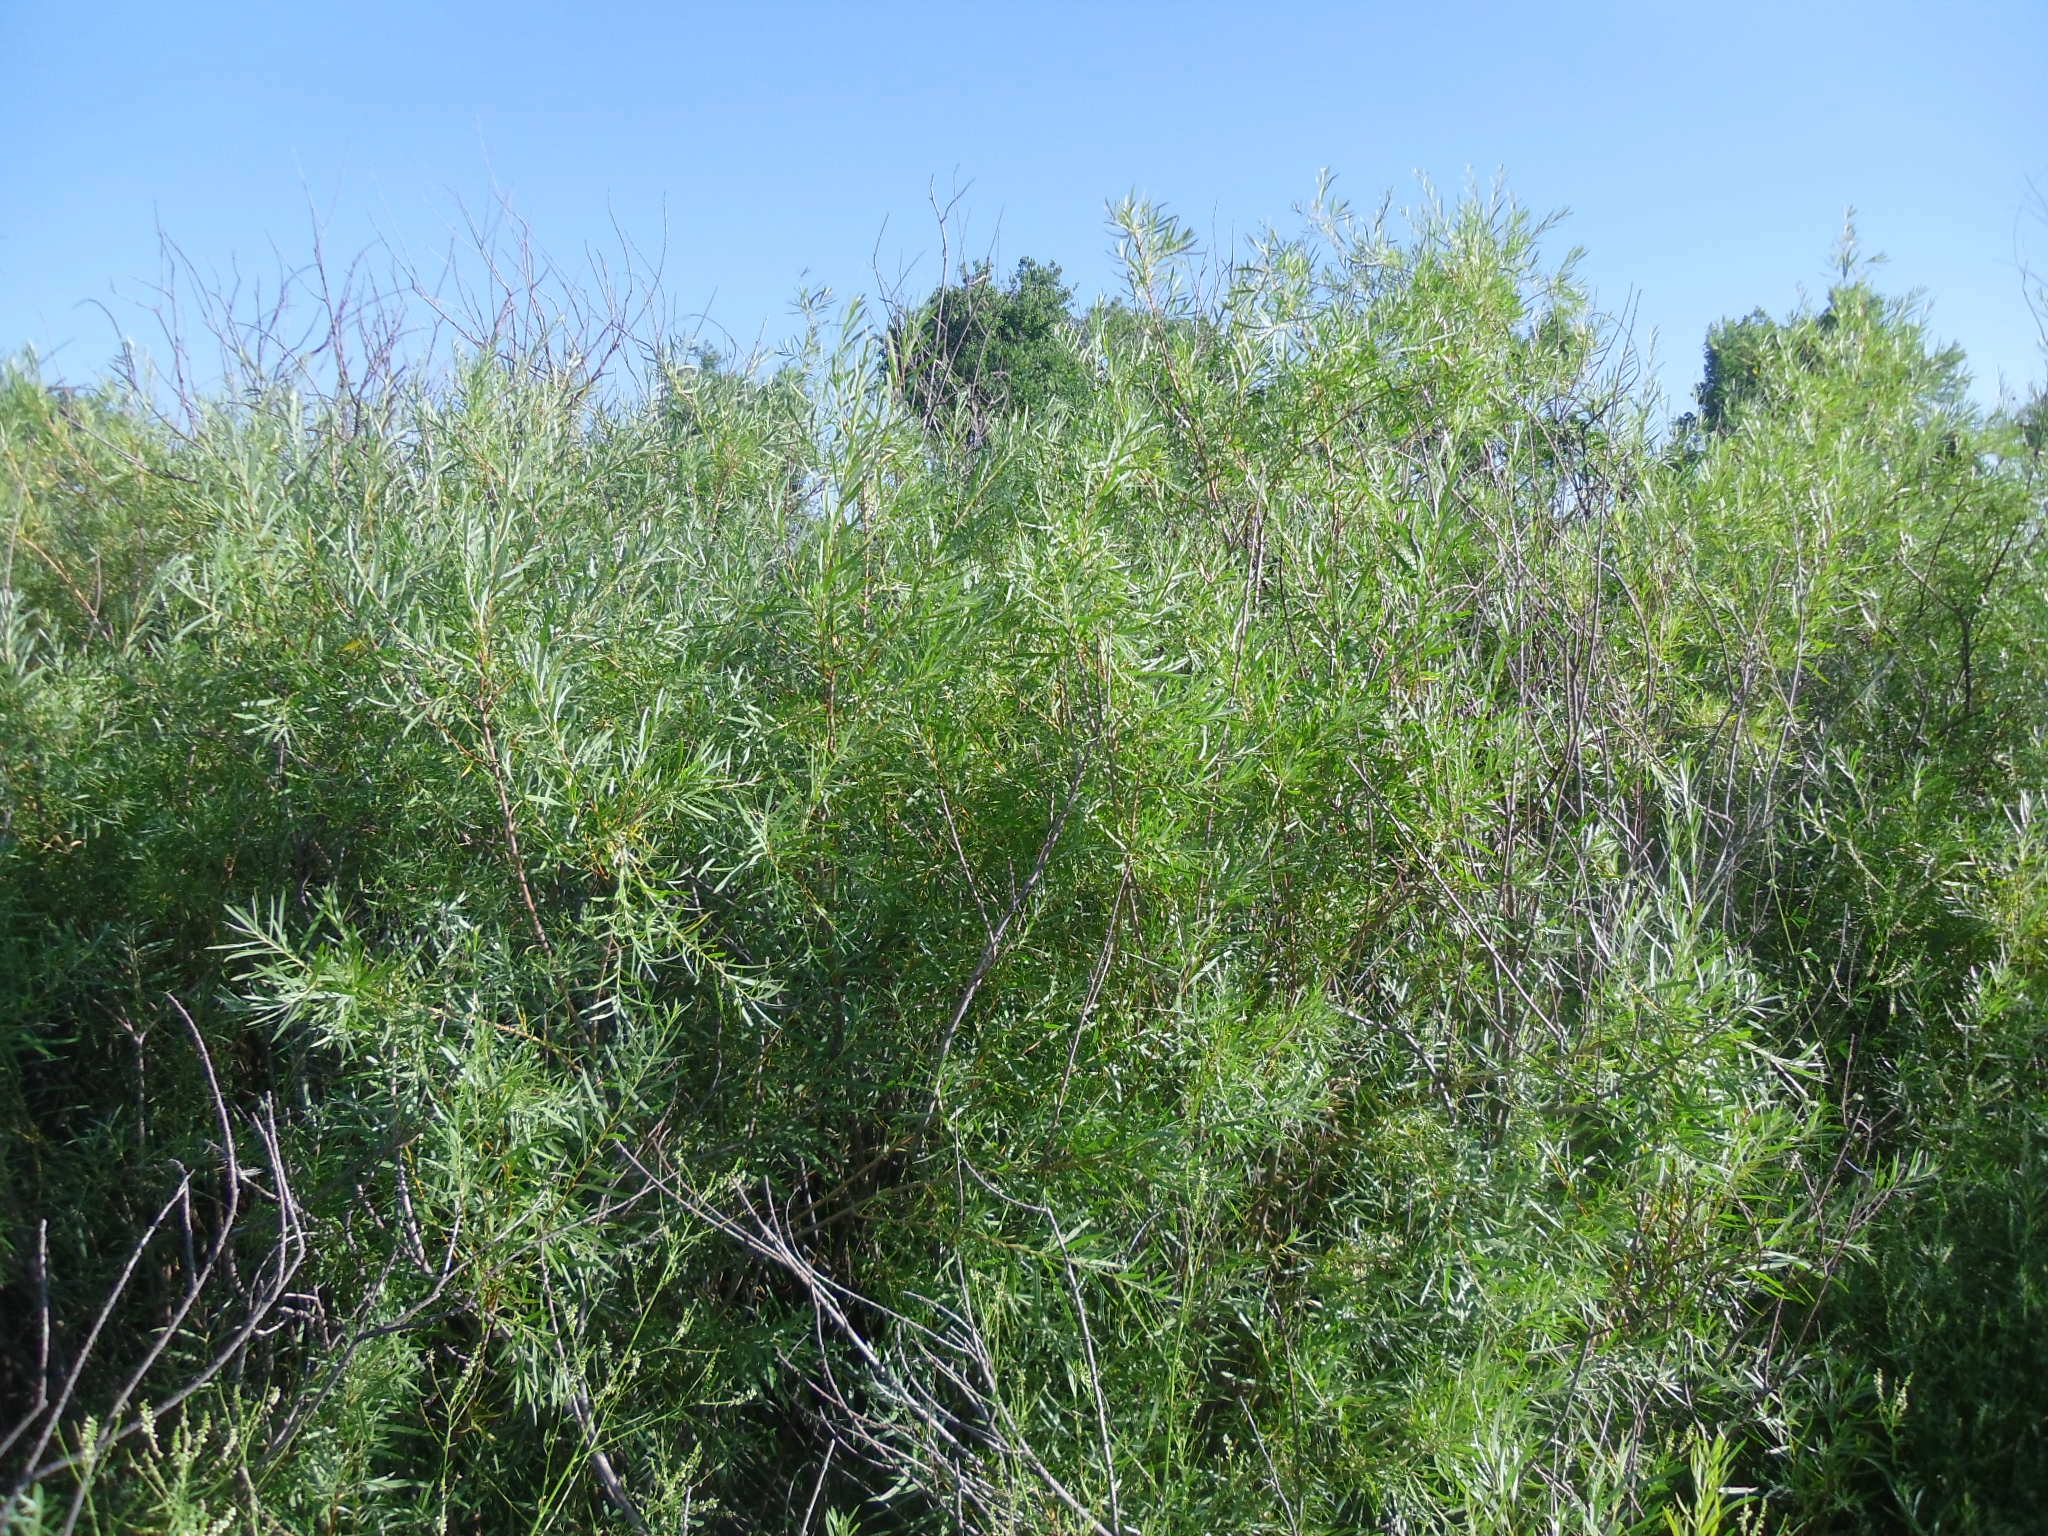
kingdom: Plantae
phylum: Tracheophyta
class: Magnoliopsida
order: Malpighiales
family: Salicaceae
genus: Salix
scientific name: Salix exigua
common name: Coyote willow
